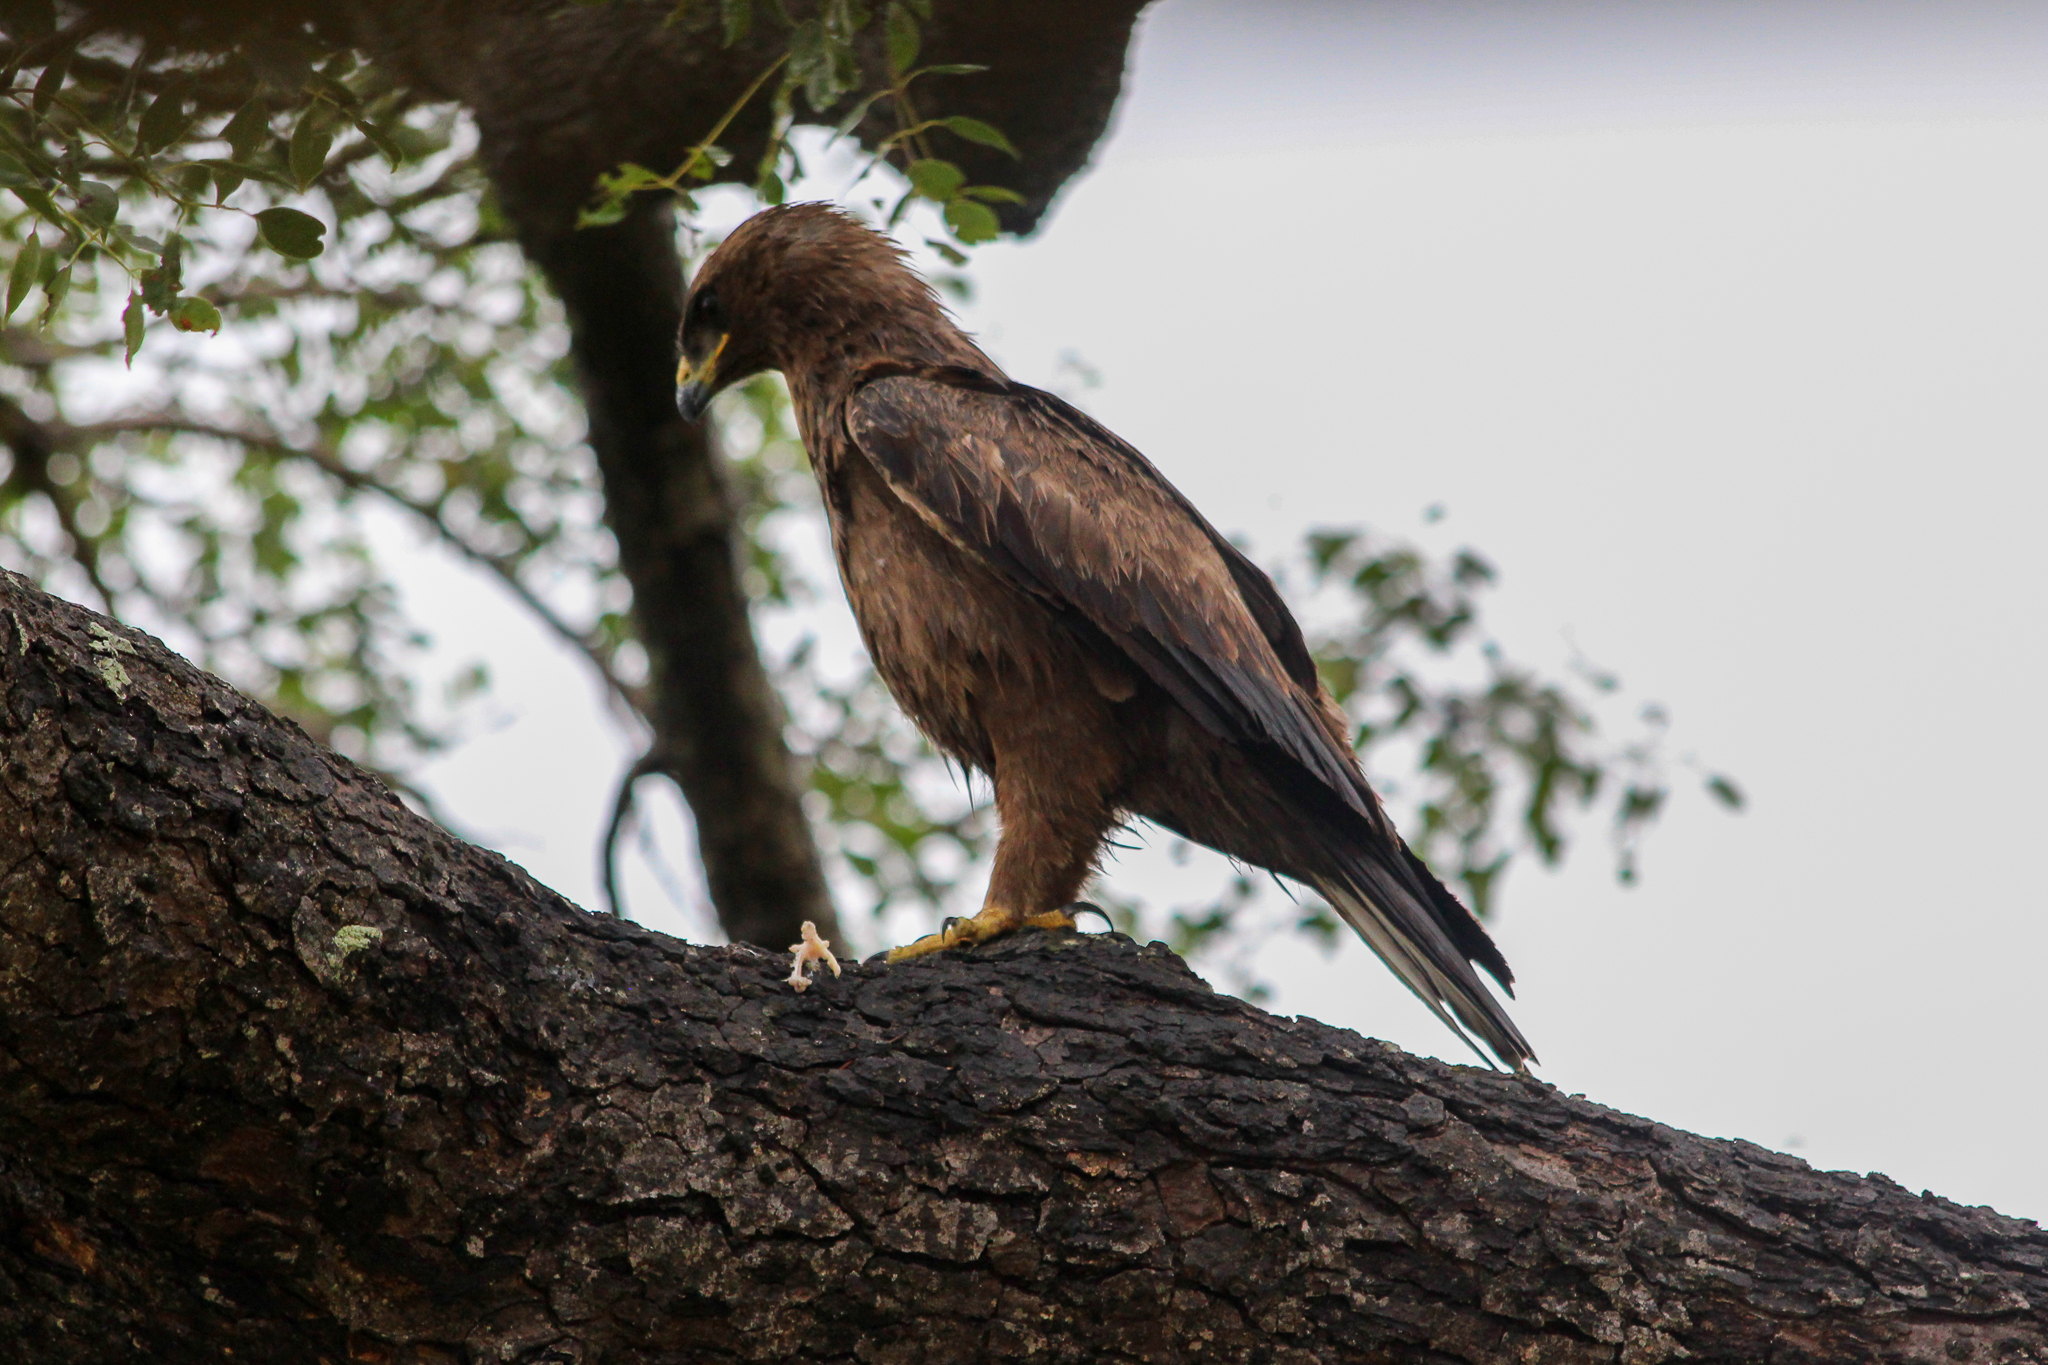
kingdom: Animalia
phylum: Chordata
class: Aves
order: Accipitriformes
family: Accipitridae
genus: Hieraaetus
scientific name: Hieraaetus wahlbergi
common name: Wahlberg's eagle
